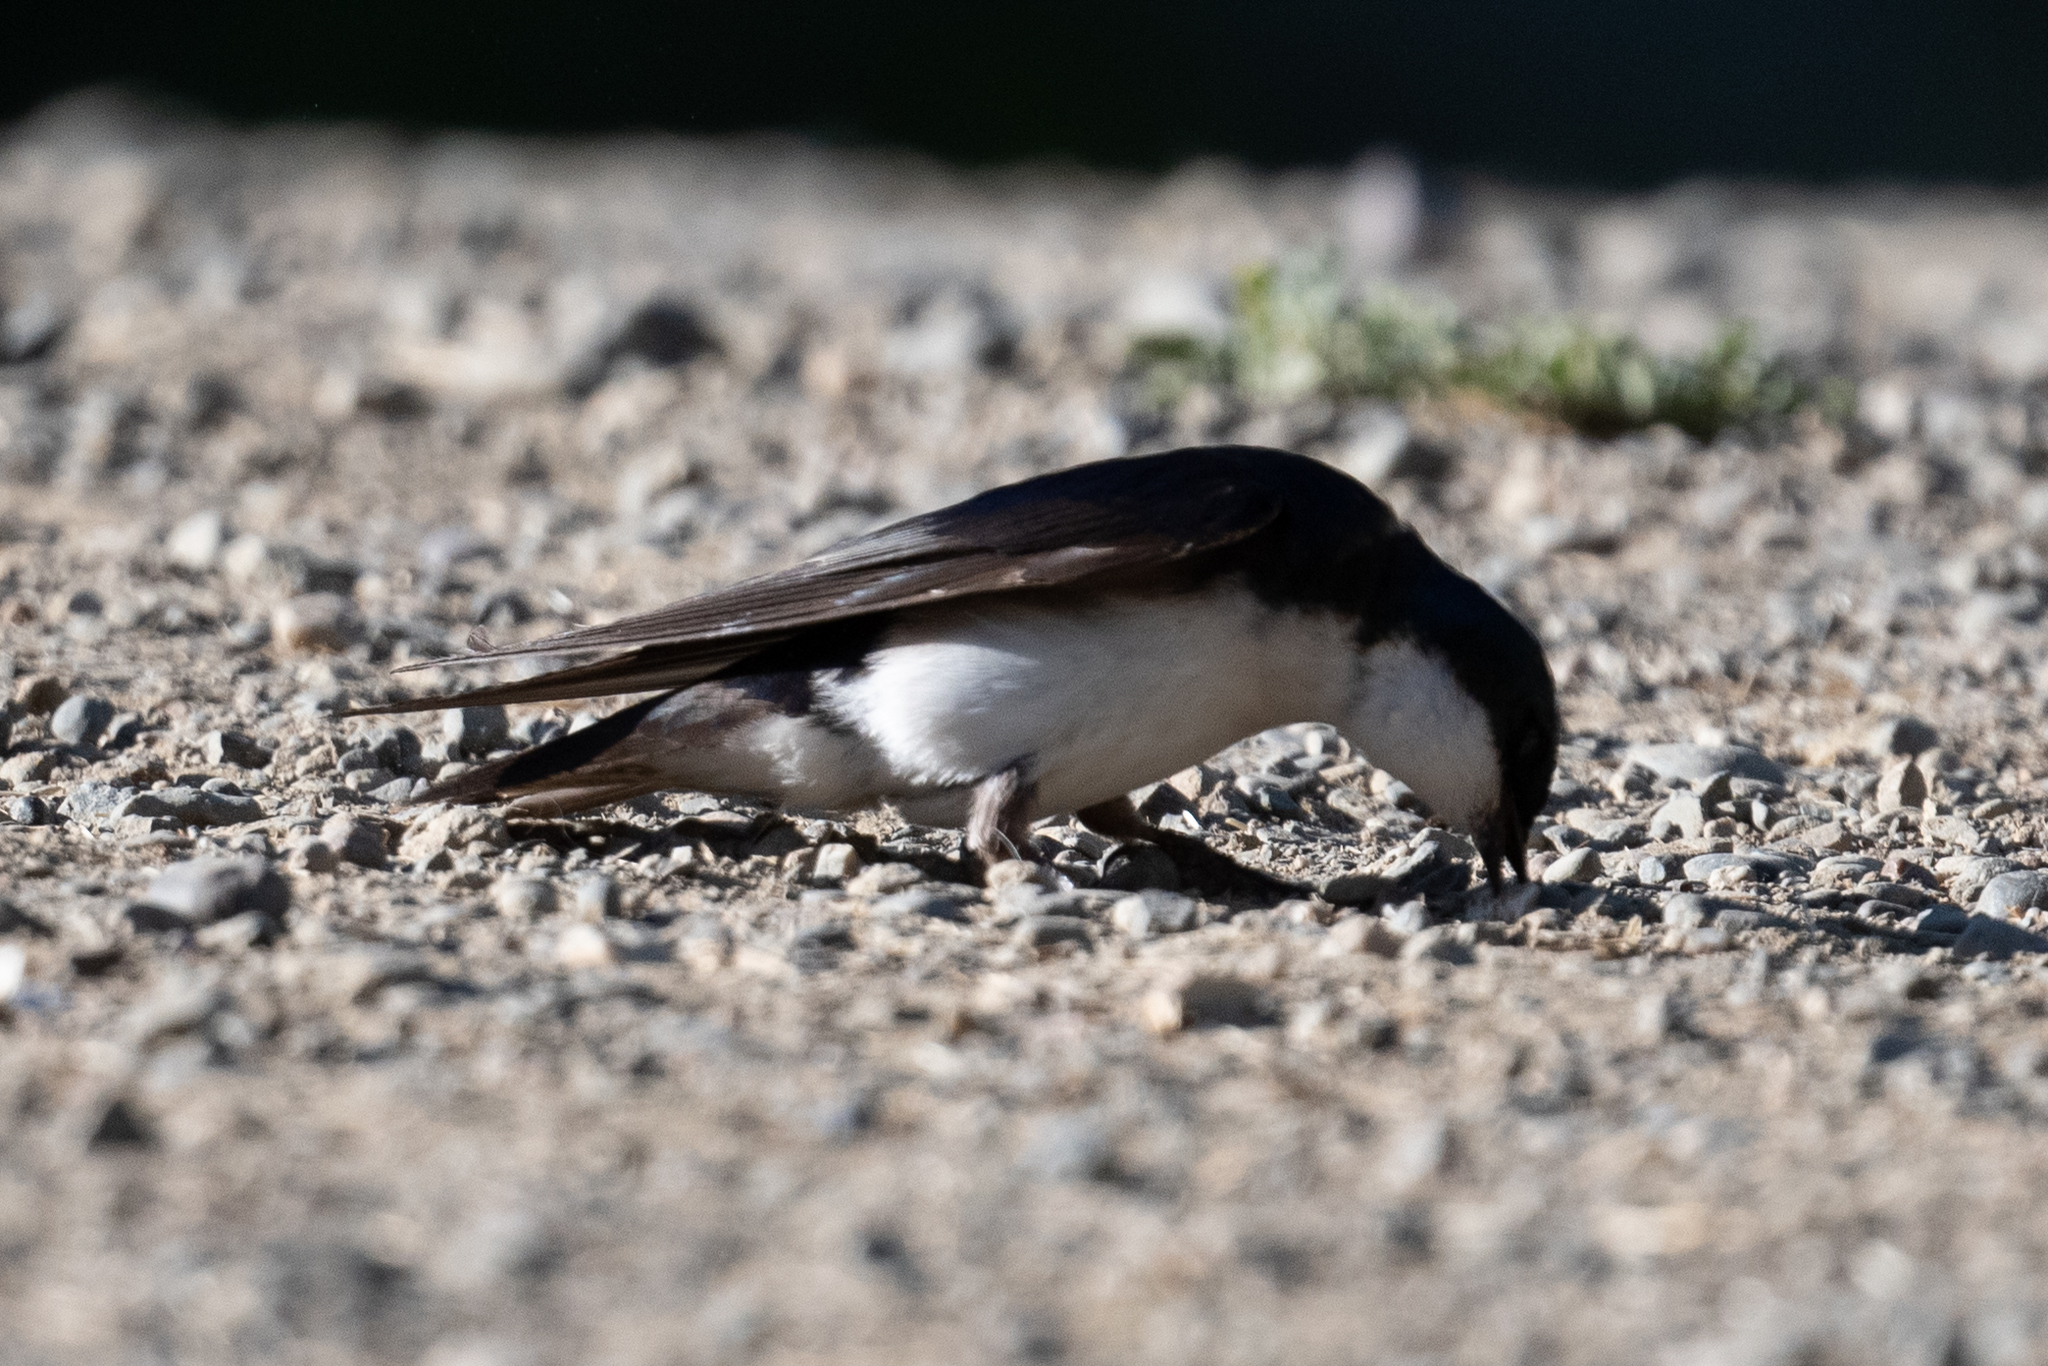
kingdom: Animalia
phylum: Chordata
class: Aves
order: Passeriformes
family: Hirundinidae
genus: Tachycineta
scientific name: Tachycineta bicolor
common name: Tree swallow
